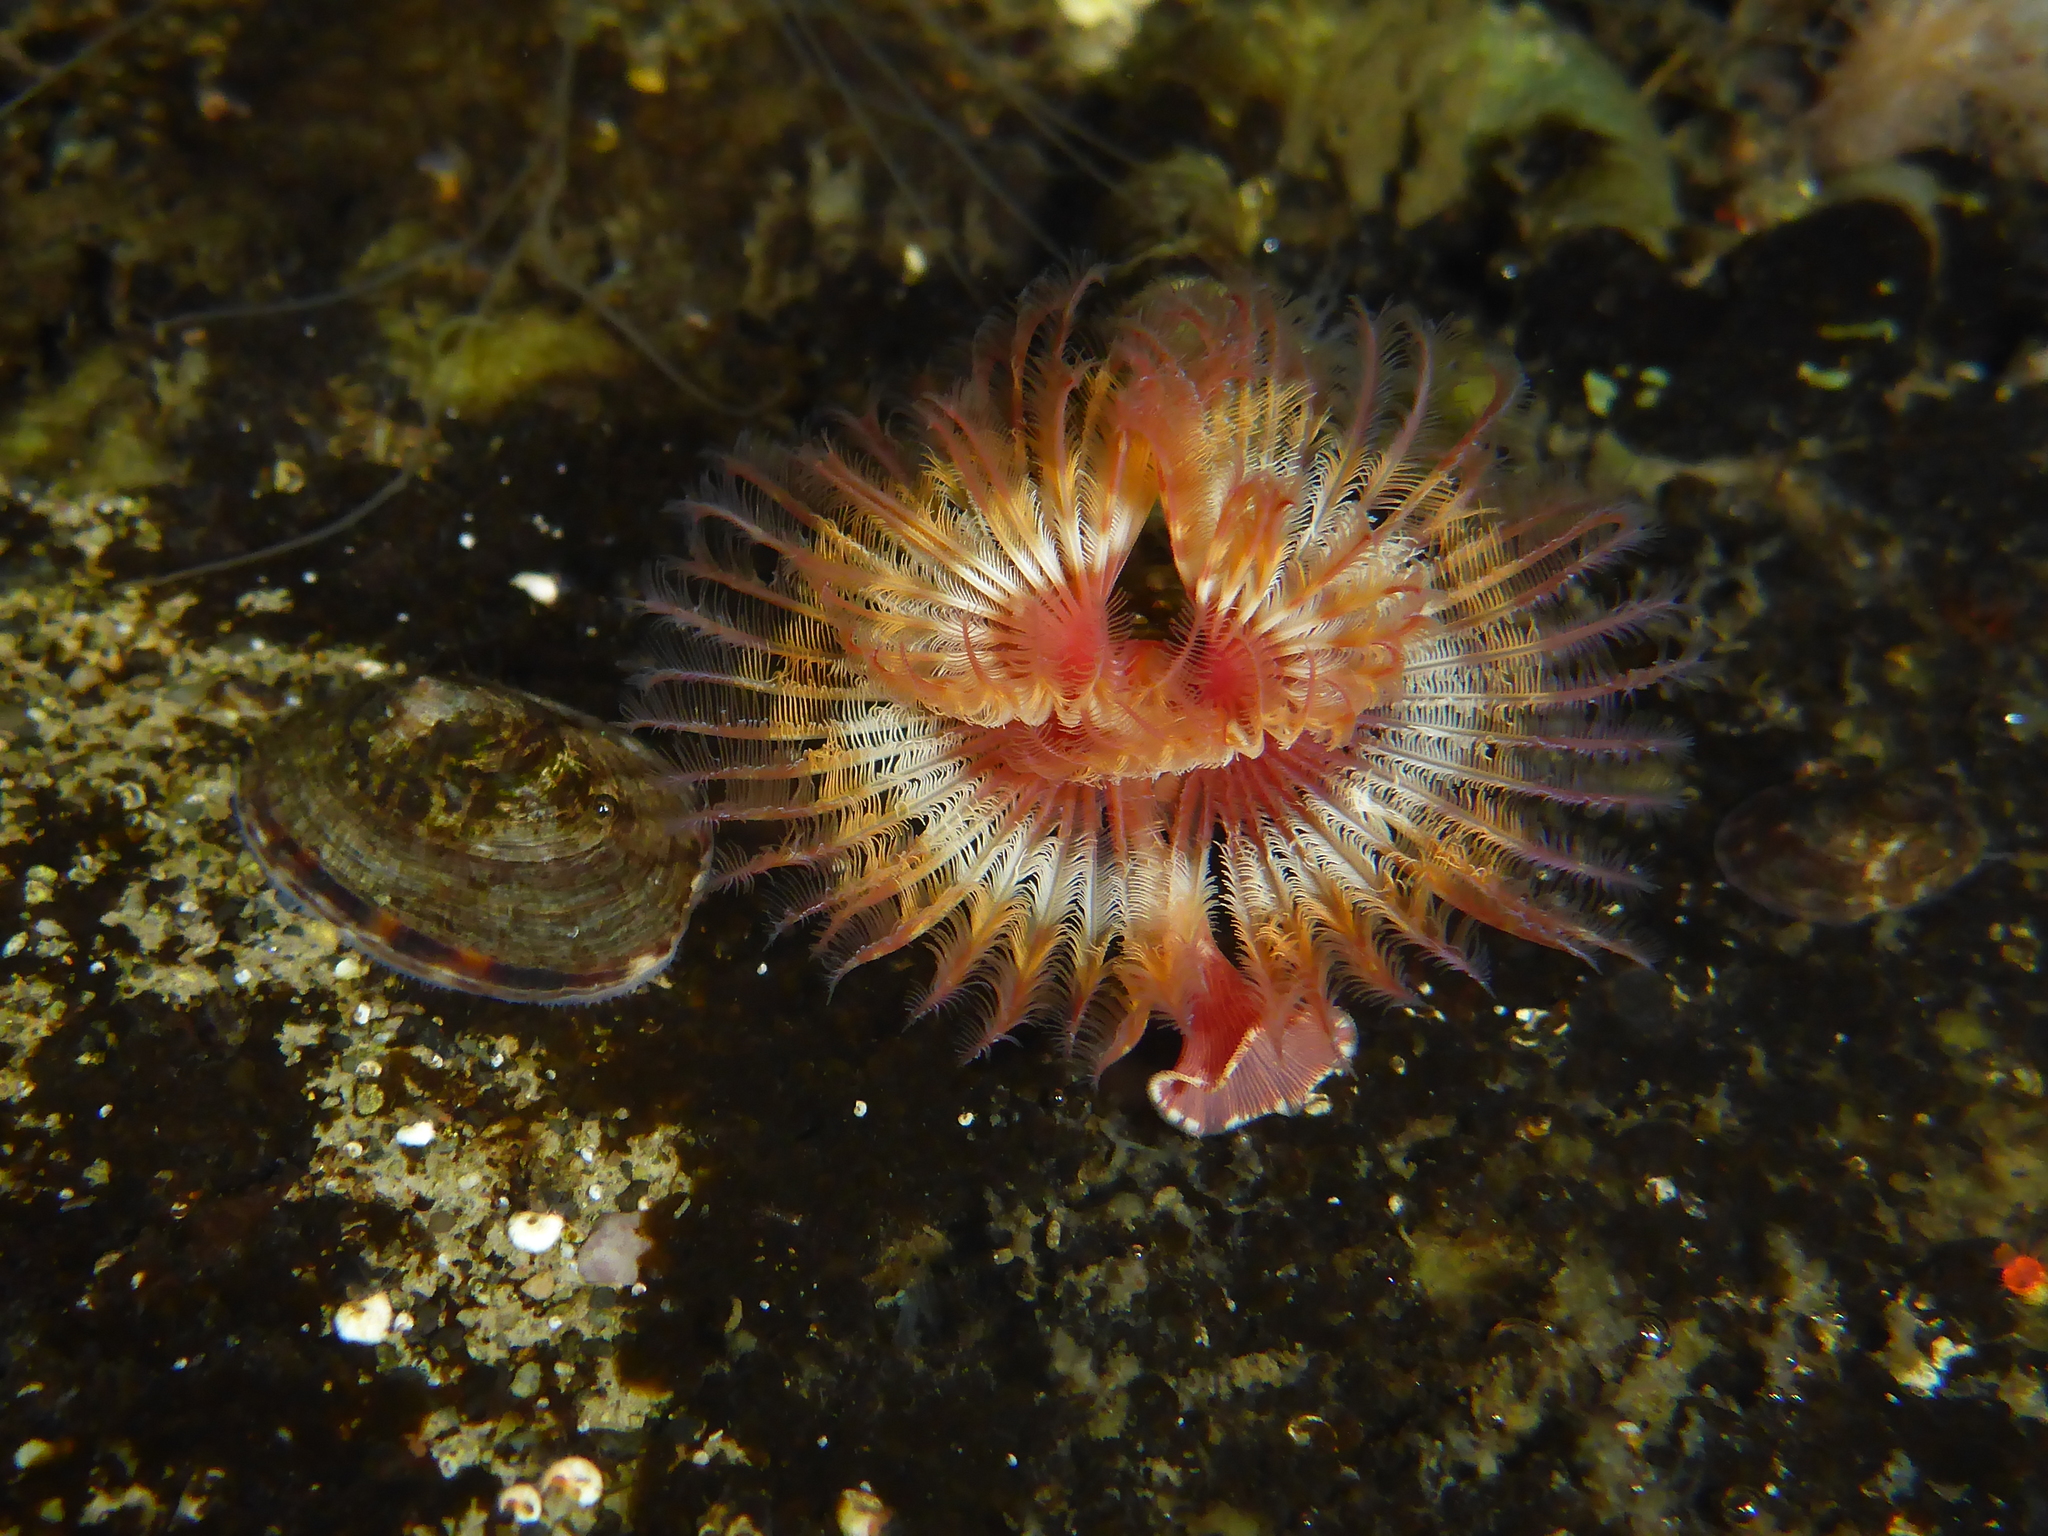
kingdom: Animalia
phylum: Annelida
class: Polychaeta
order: Sabellida
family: Serpulidae
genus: Serpula
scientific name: Serpula columbiana
